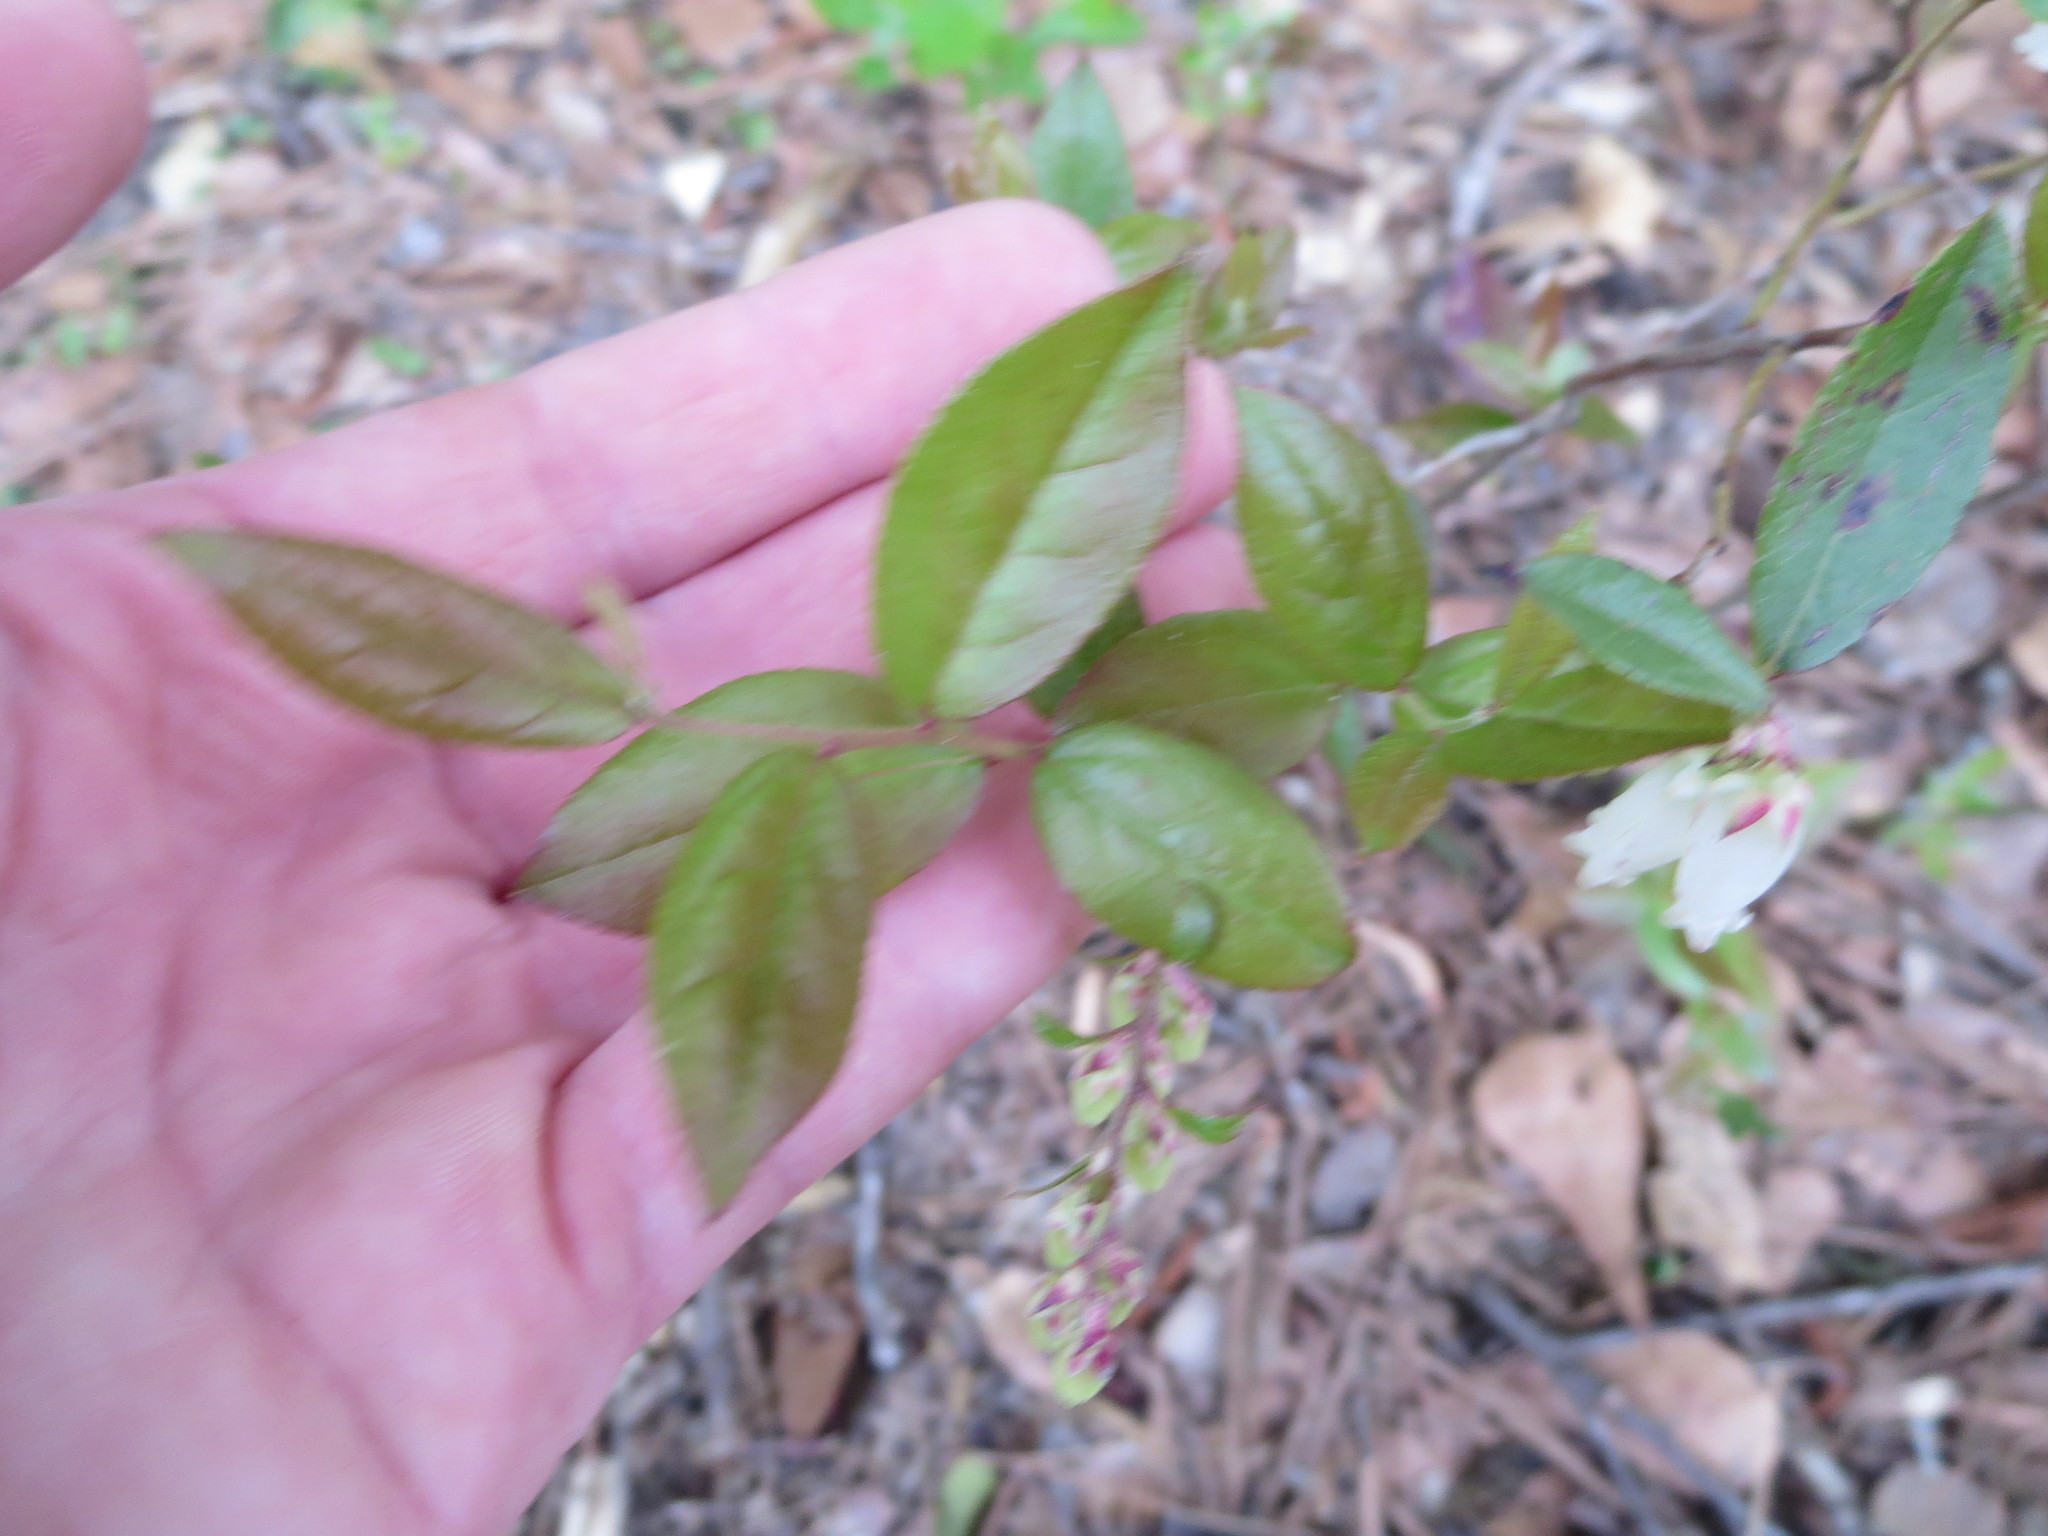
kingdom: Plantae
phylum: Tracheophyta
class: Magnoliopsida
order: Ericales
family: Ericaceae
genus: Eubotrys
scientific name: Eubotrys racemosa
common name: Fetterbush
